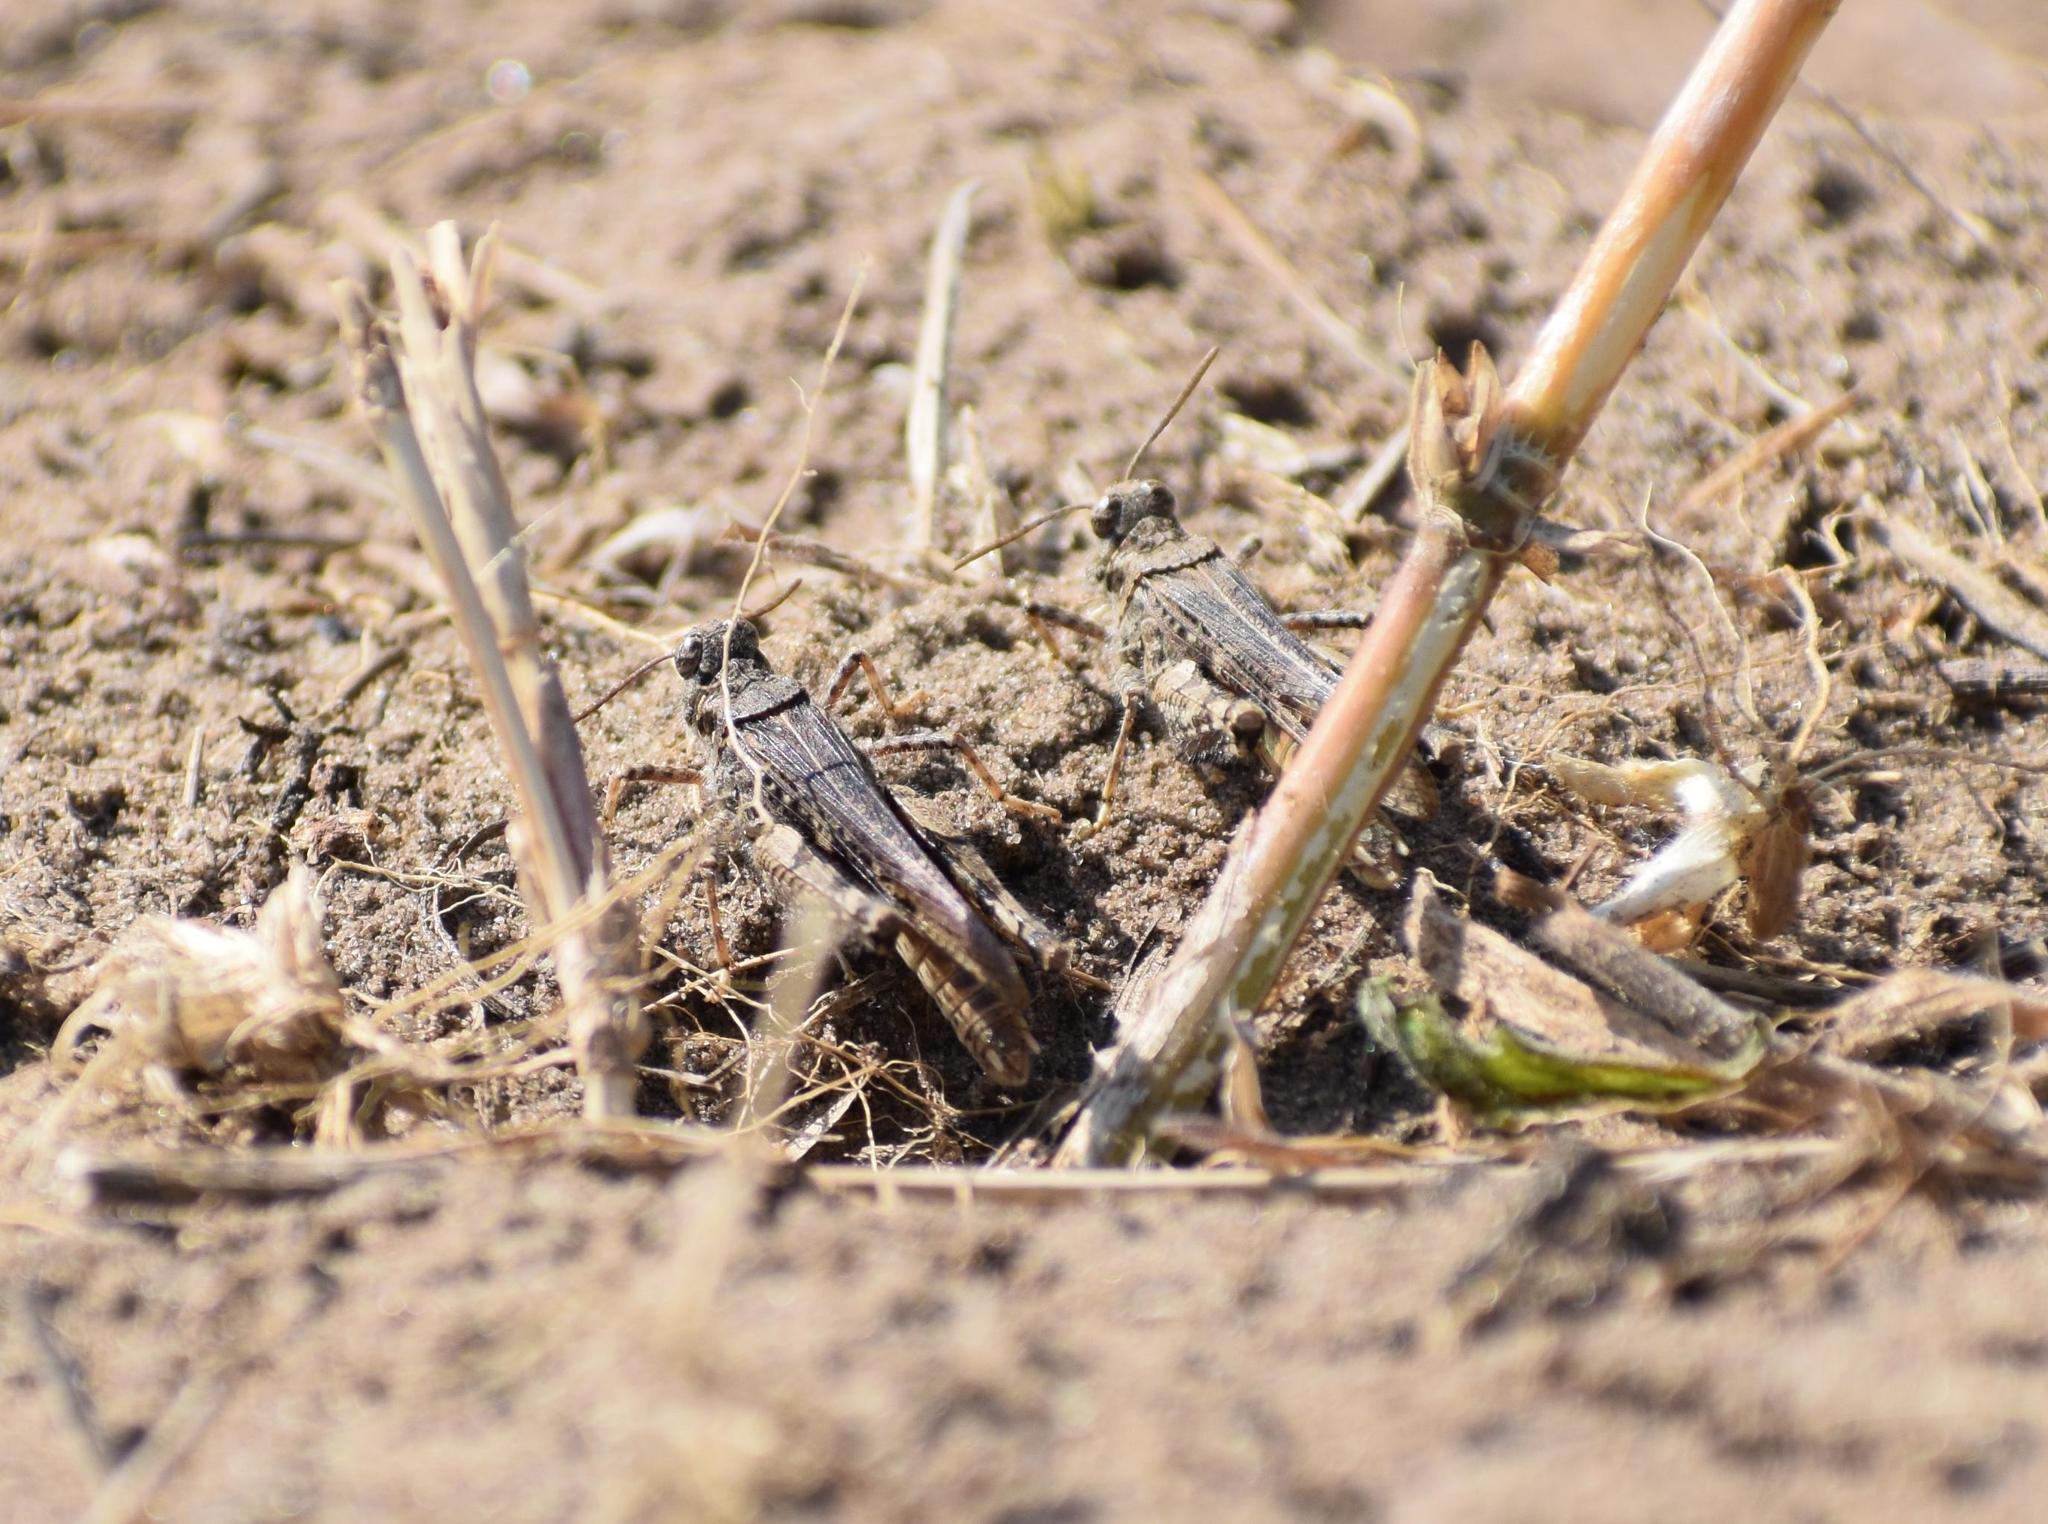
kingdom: Animalia
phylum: Arthropoda
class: Insecta
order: Orthoptera
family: Acrididae
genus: Acrotylus
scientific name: Acrotylus
